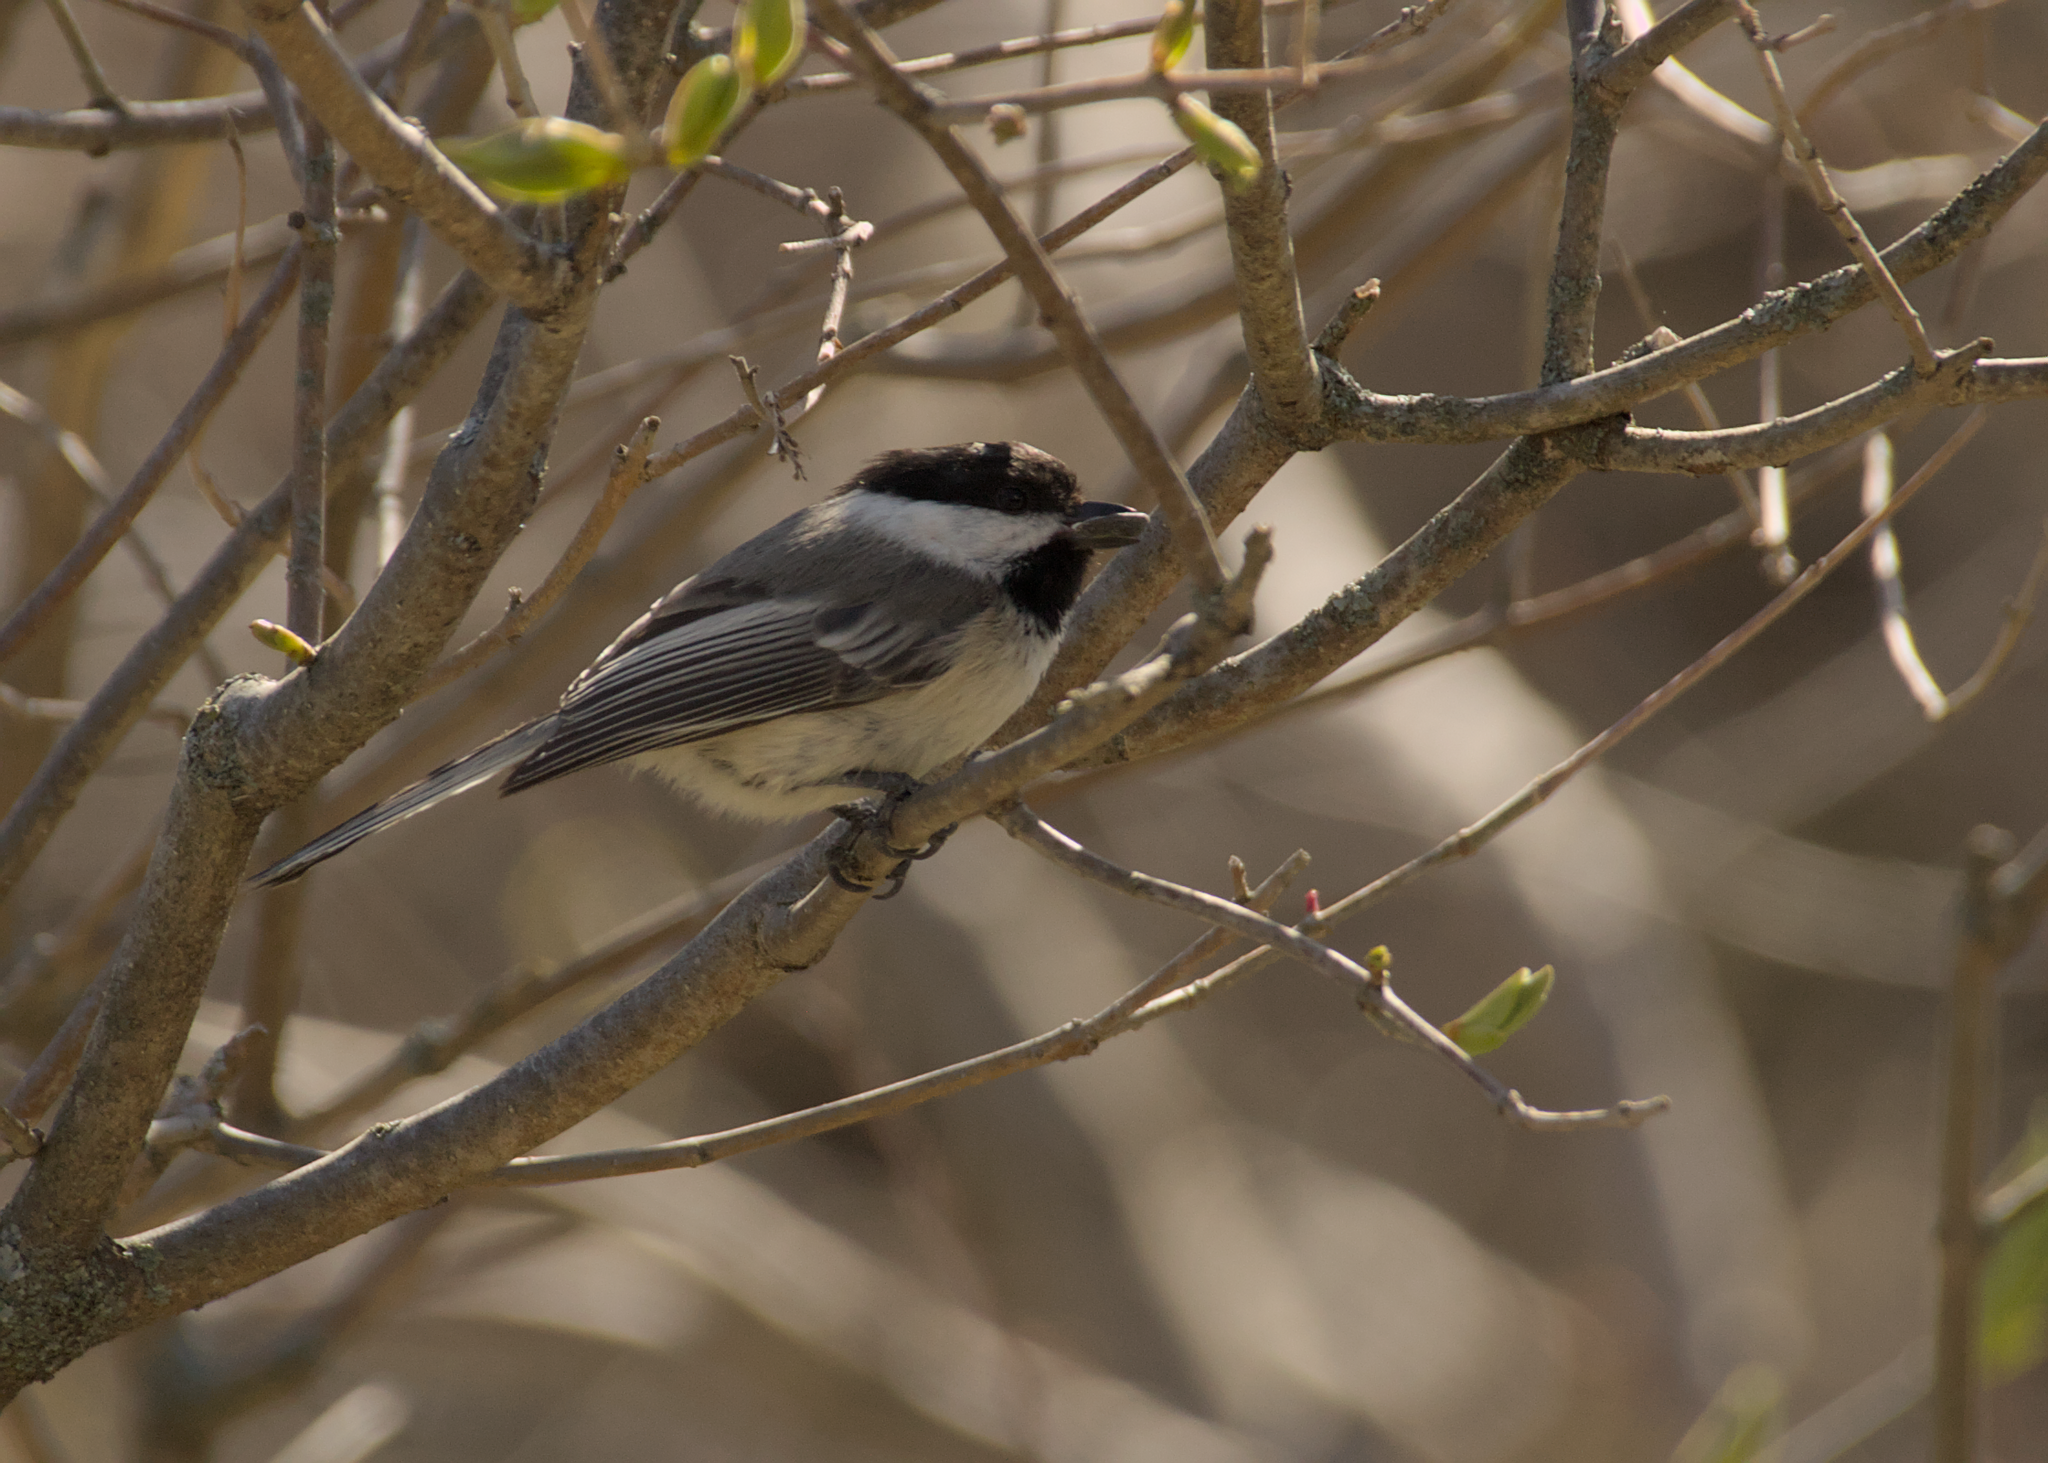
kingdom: Animalia
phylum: Chordata
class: Aves
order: Passeriformes
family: Paridae
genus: Poecile
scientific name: Poecile atricapillus
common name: Black-capped chickadee
